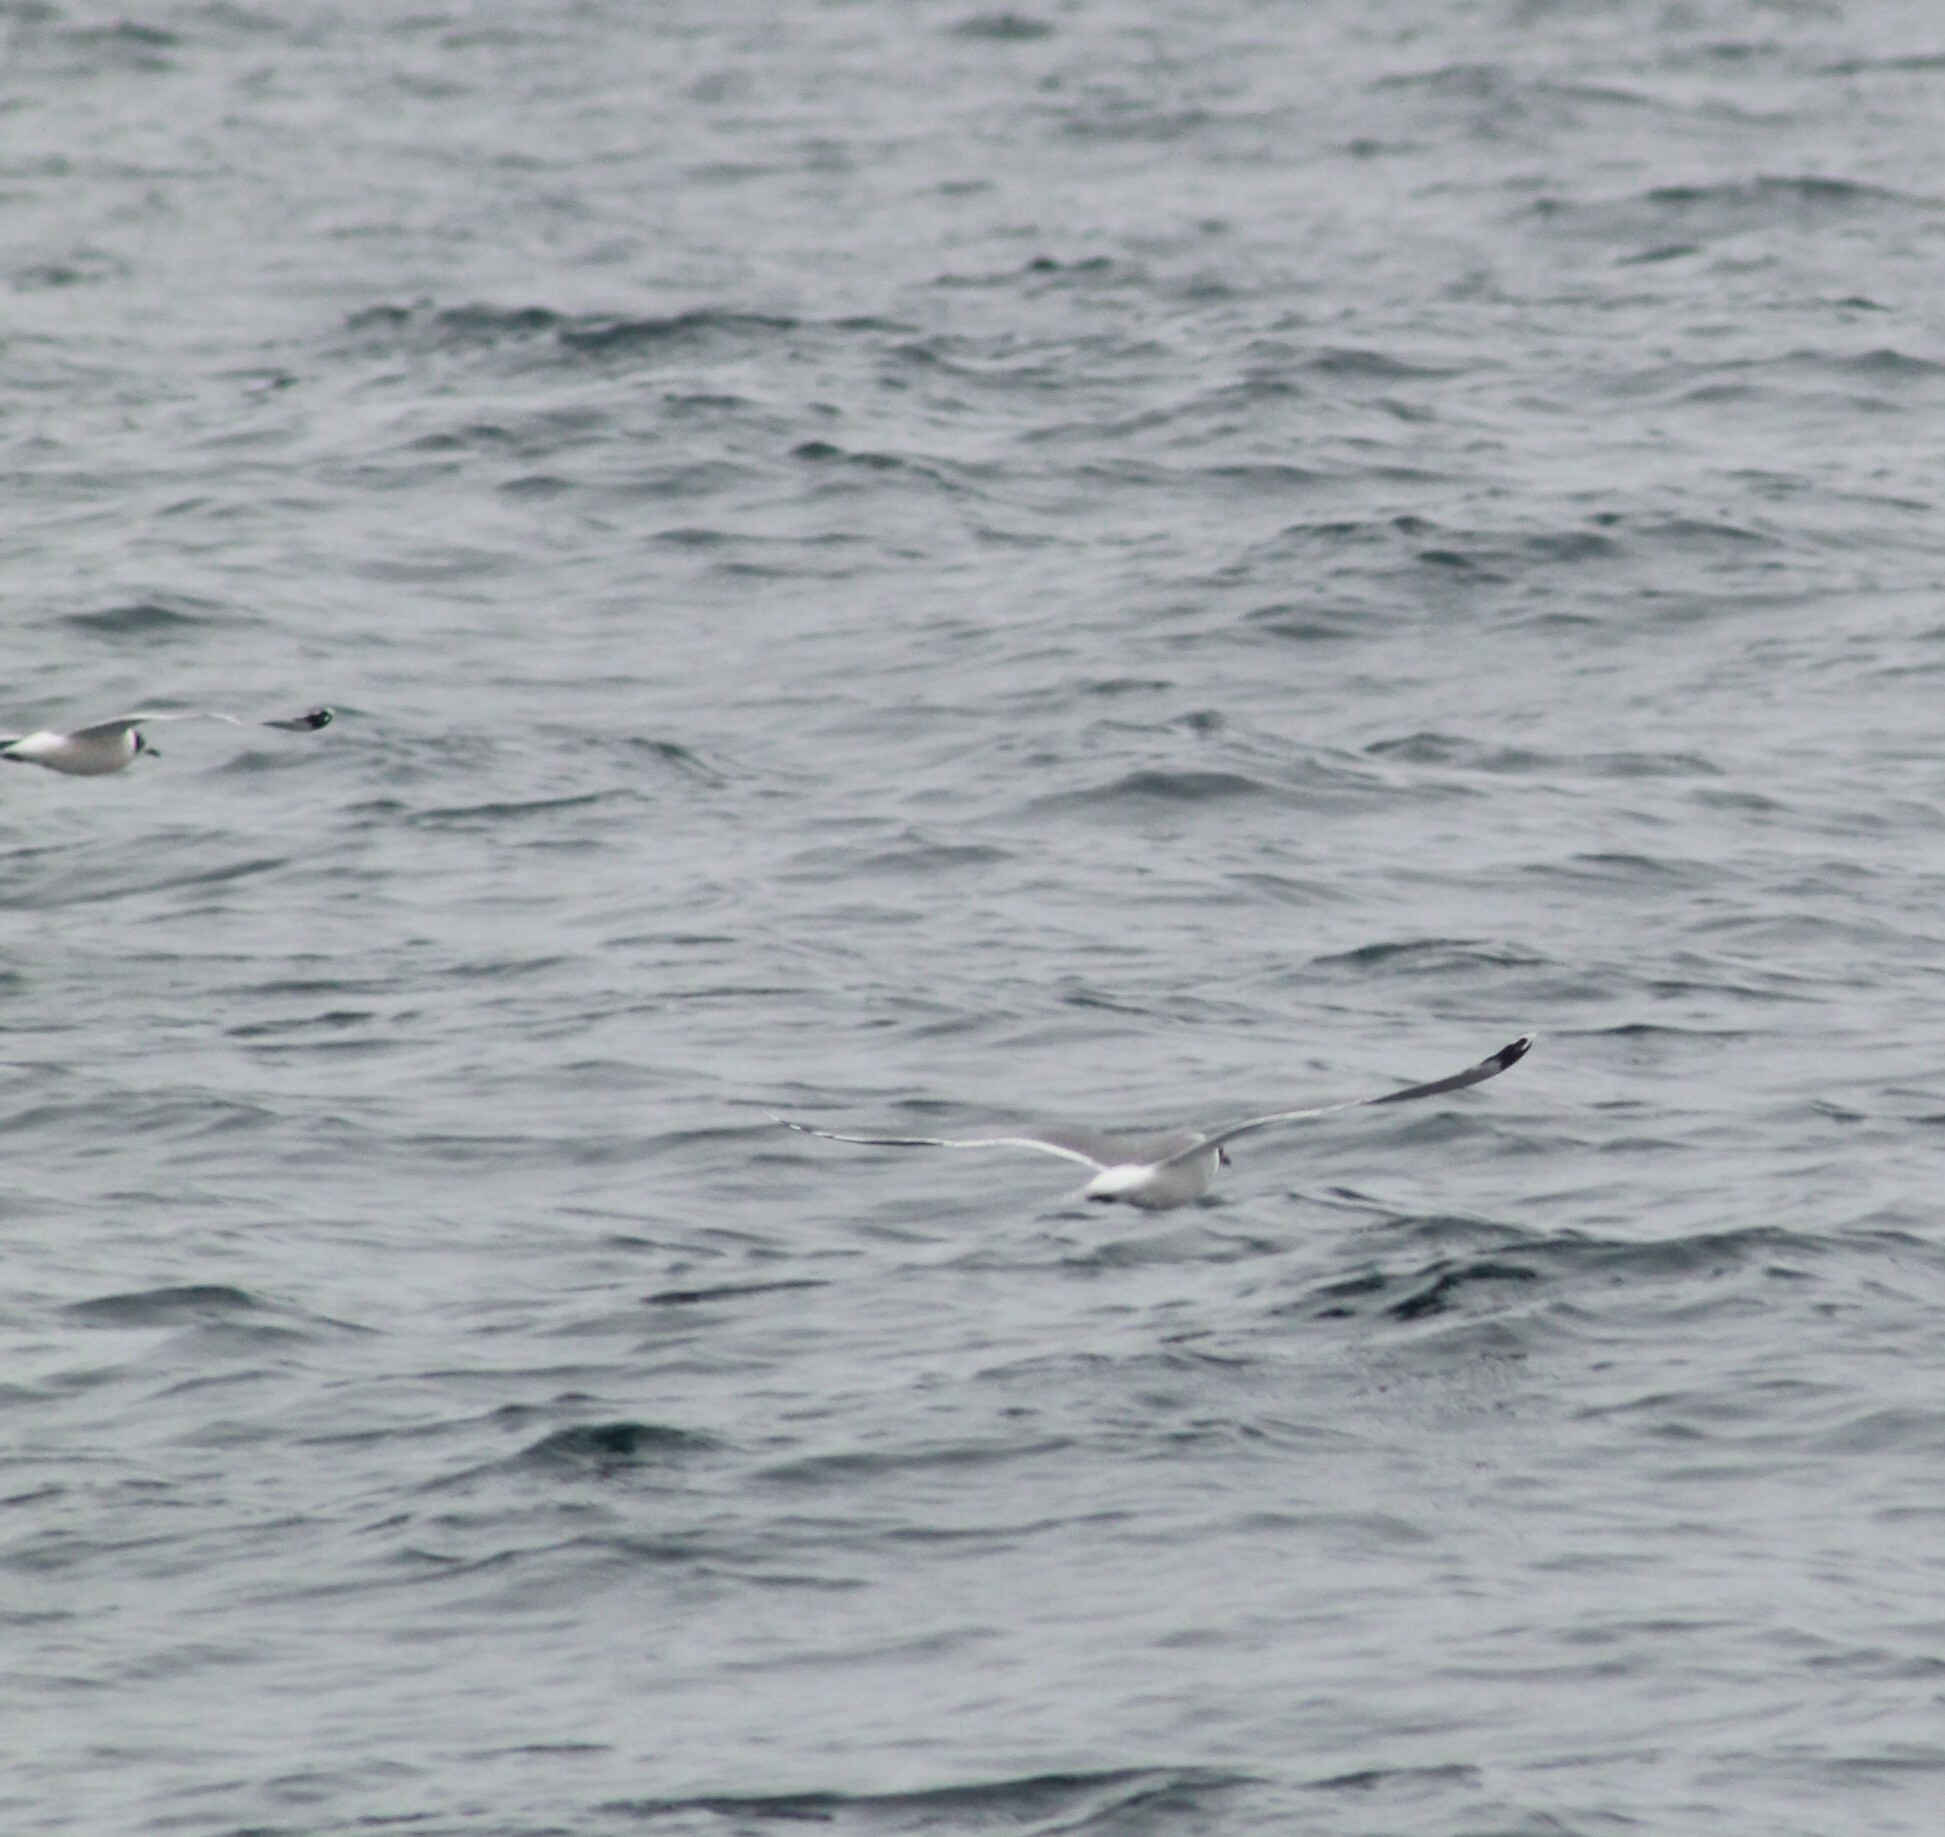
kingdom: Animalia
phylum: Chordata
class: Aves
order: Charadriiformes
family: Laridae
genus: Leucophaeus
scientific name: Leucophaeus pipixcan
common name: Franklin's gull
